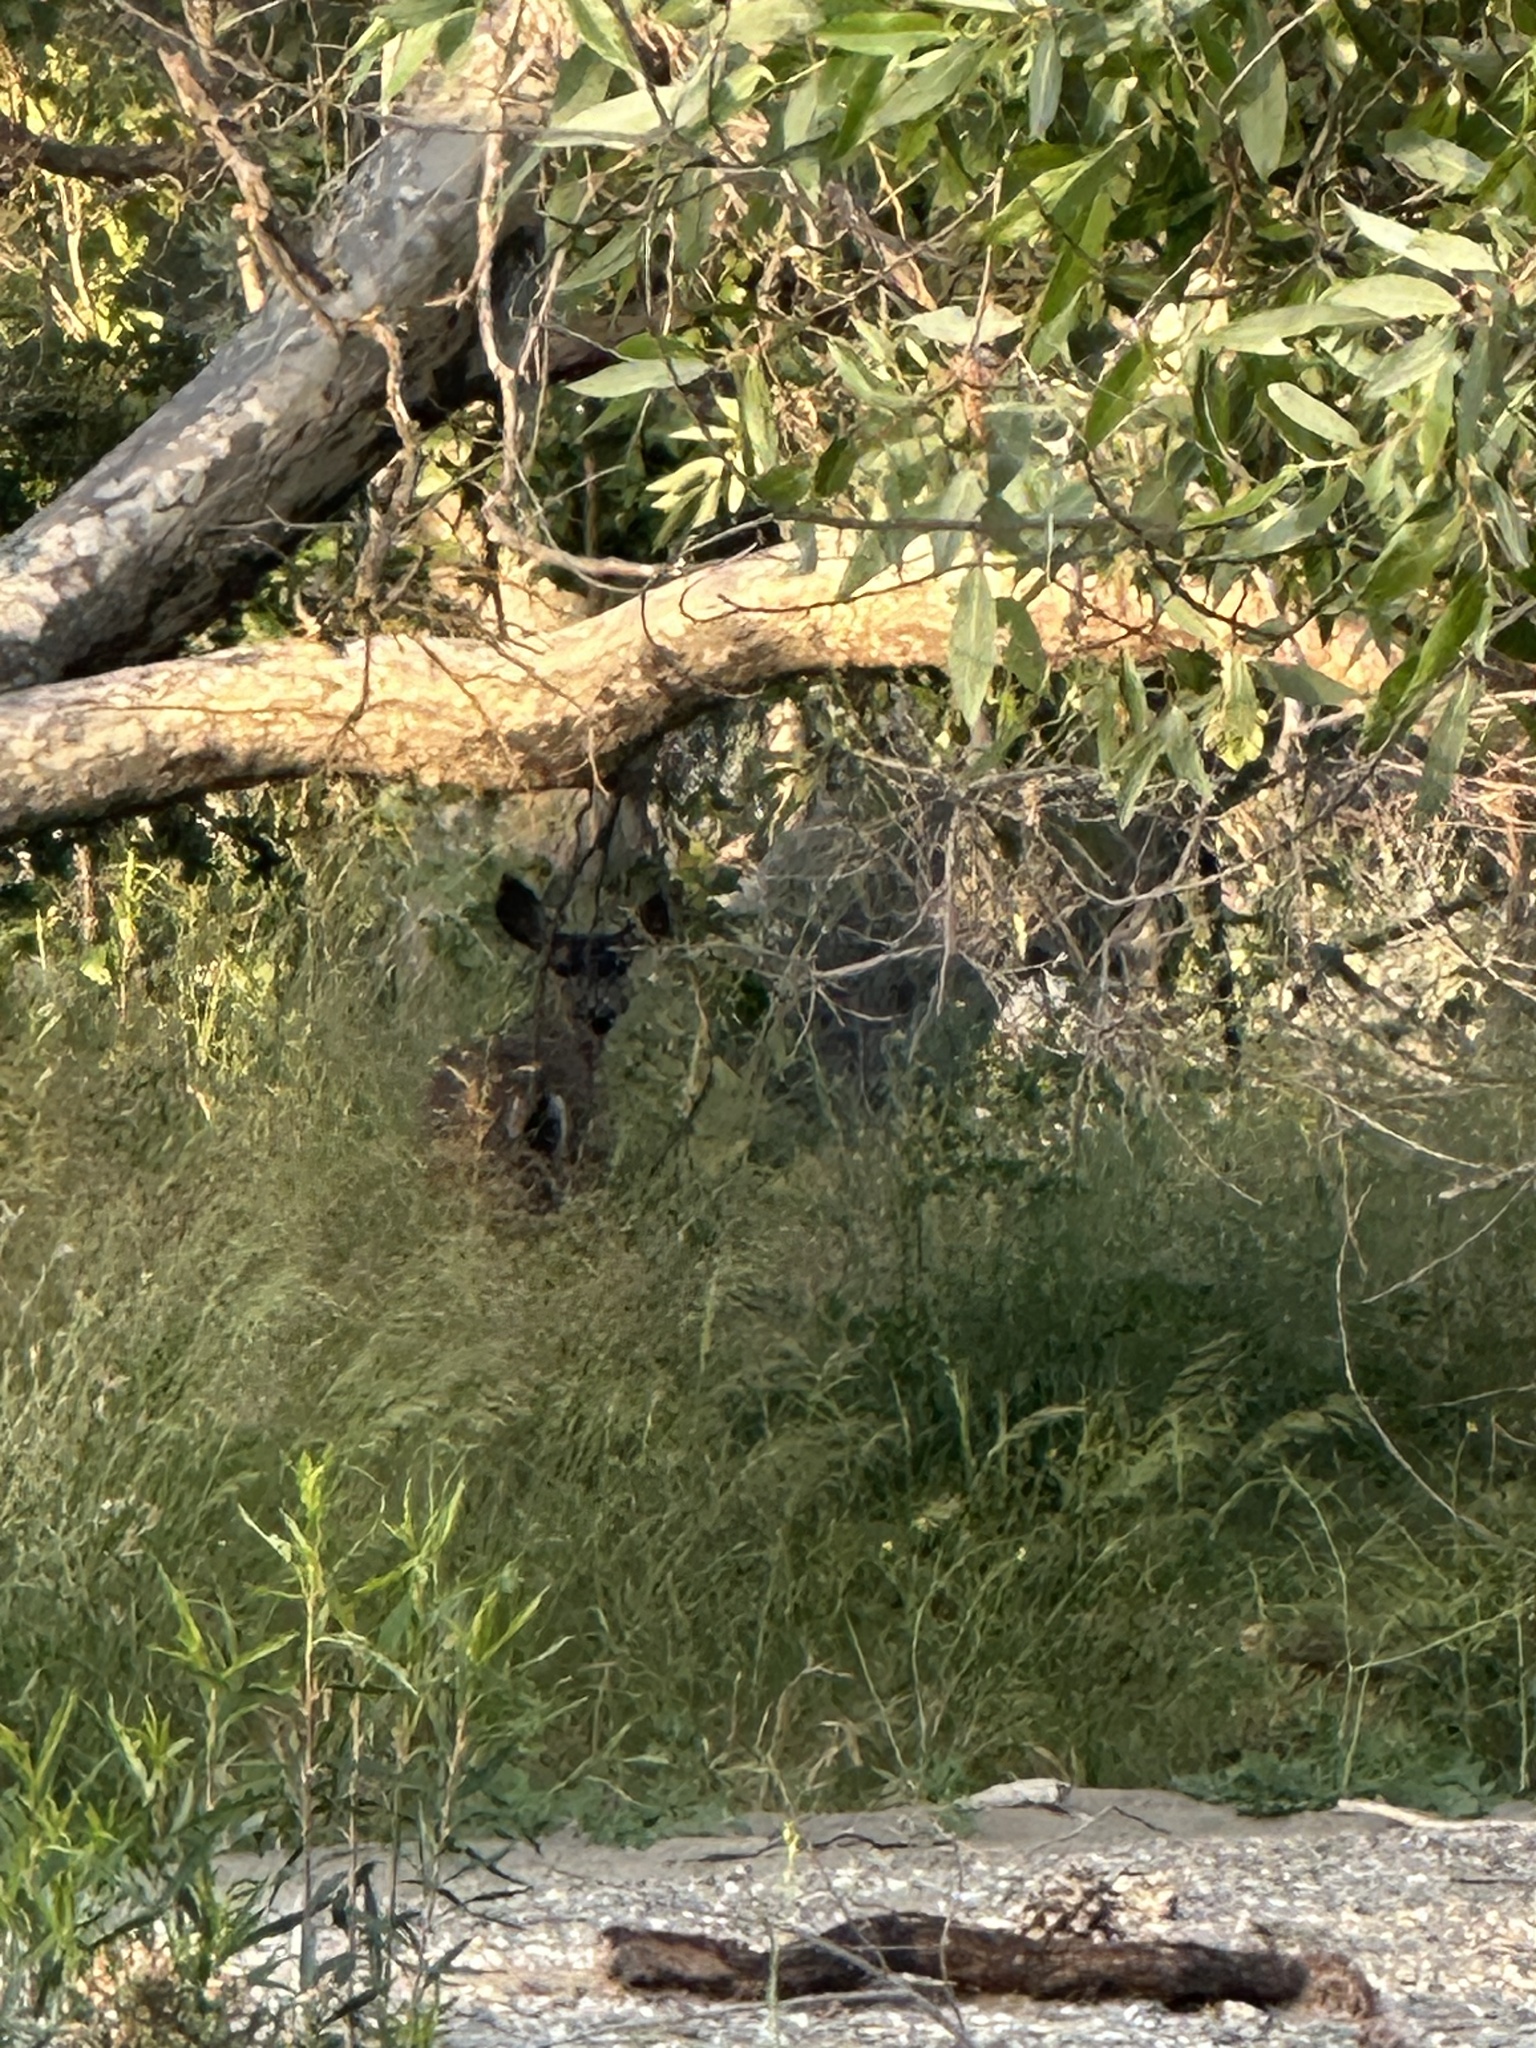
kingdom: Animalia
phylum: Chordata
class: Mammalia
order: Artiodactyla
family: Cervidae
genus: Odocoileus
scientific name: Odocoileus hemionus
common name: Mule deer
